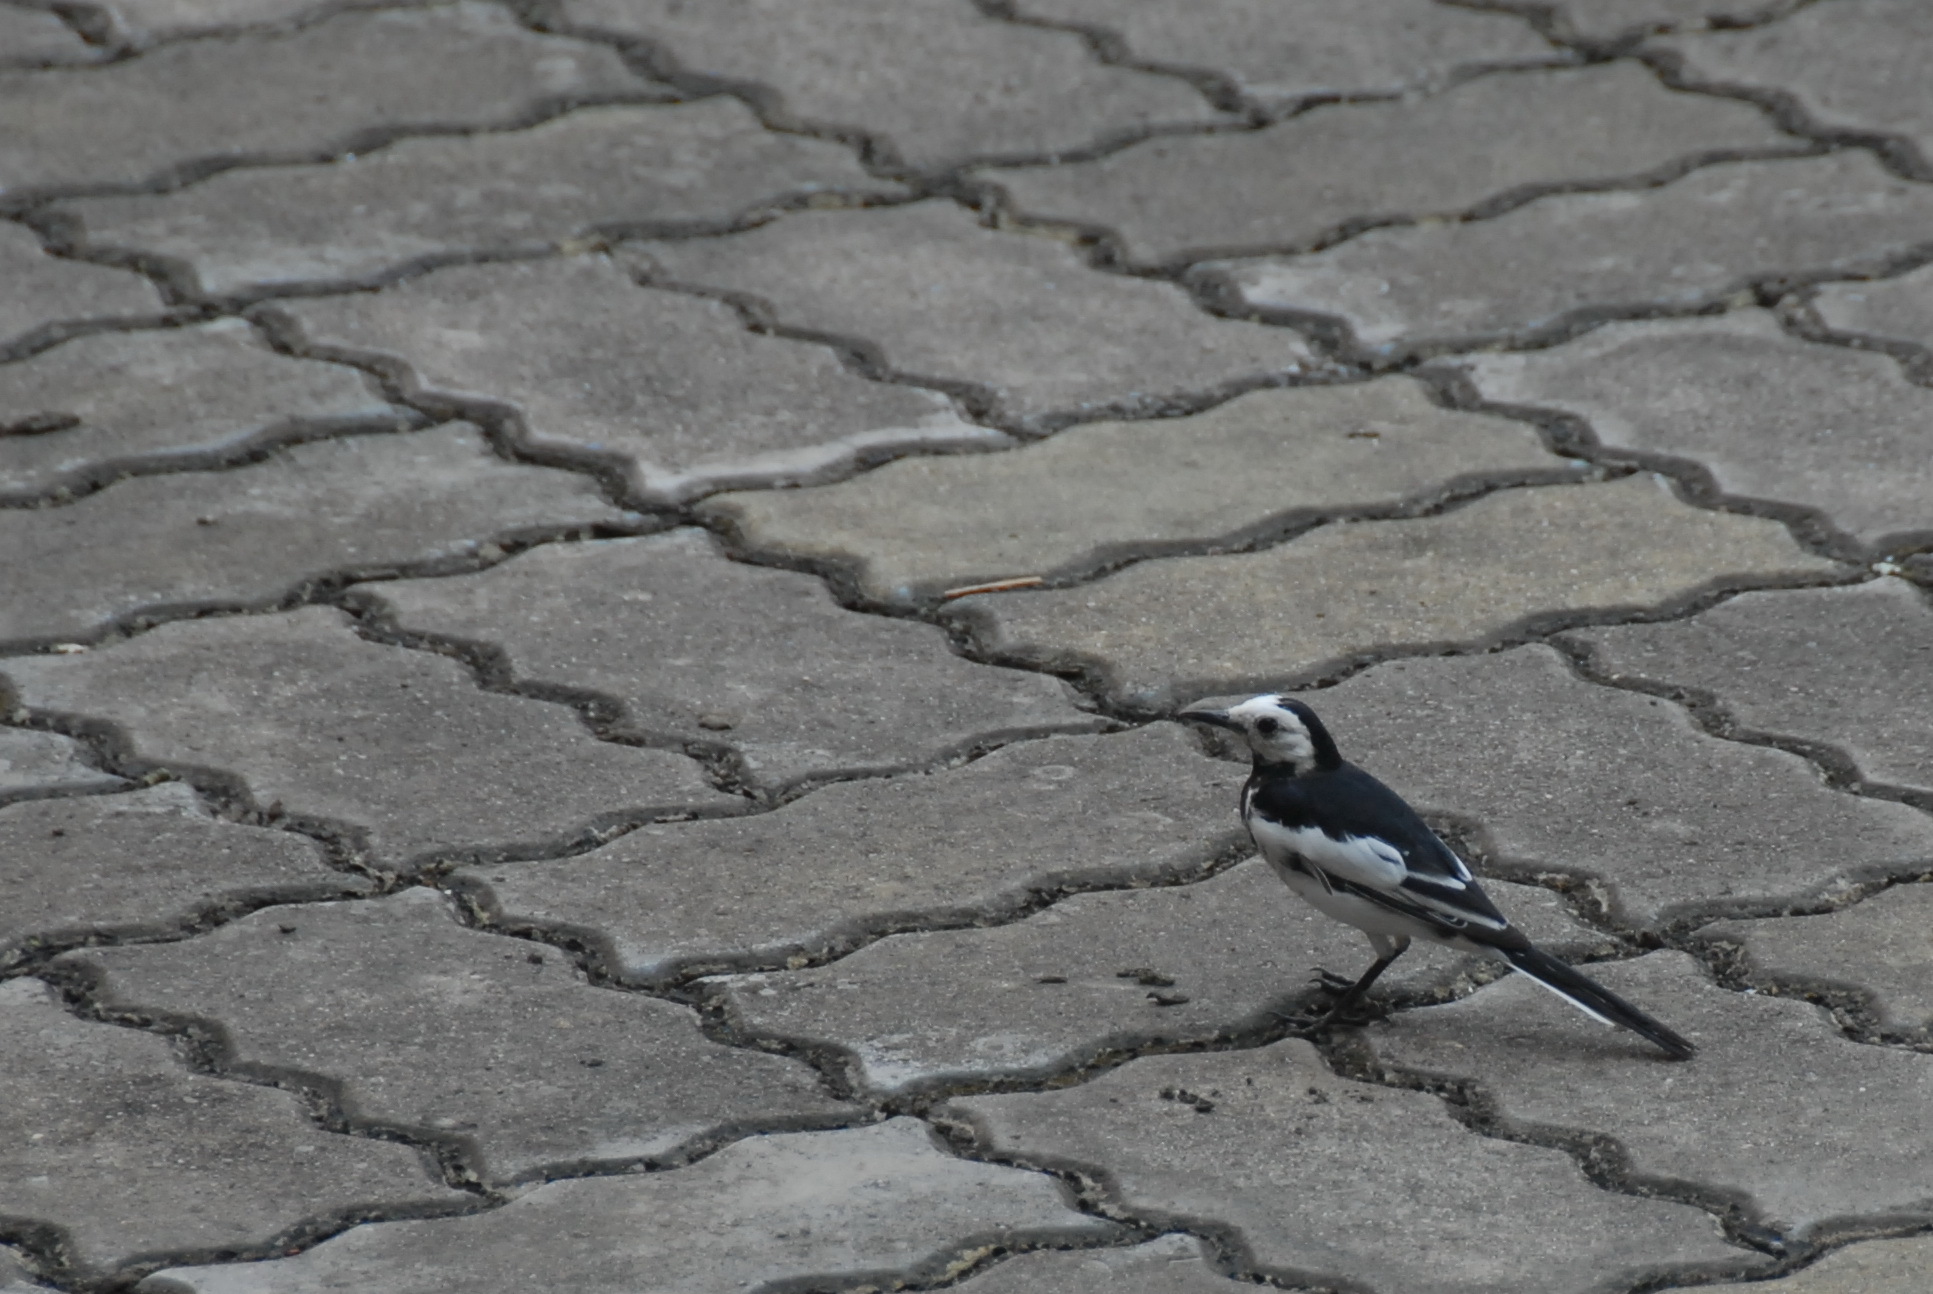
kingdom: Animalia
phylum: Chordata
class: Aves
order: Passeriformes
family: Motacillidae
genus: Motacilla
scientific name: Motacilla alba
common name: White wagtail
